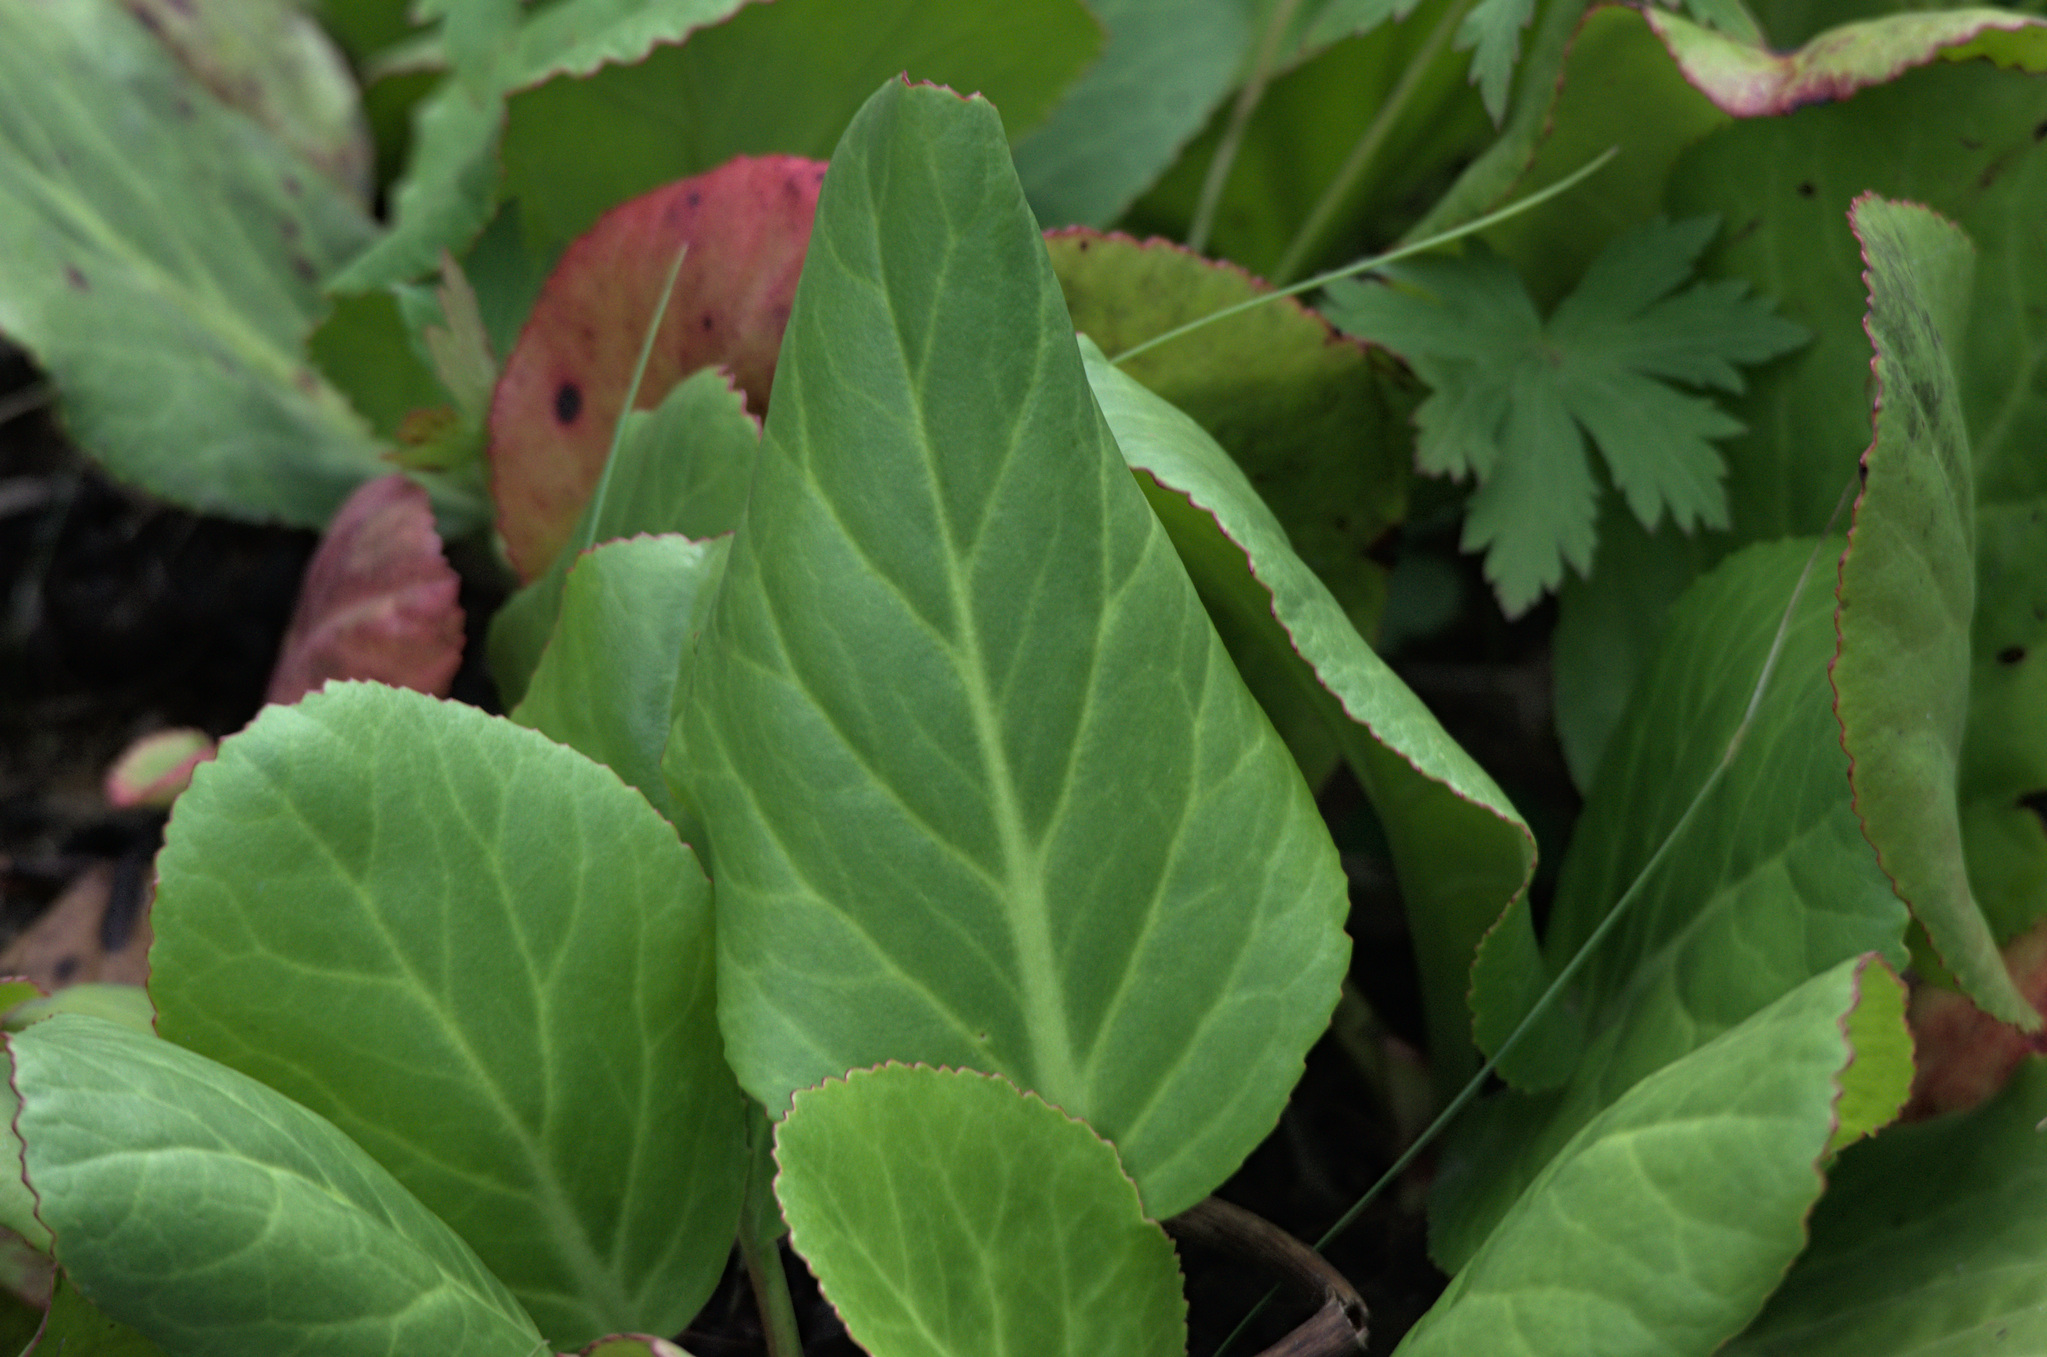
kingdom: Plantae
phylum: Tracheophyta
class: Magnoliopsida
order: Saxifragales
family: Saxifragaceae
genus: Bergenia
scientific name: Bergenia crassifolia
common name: Elephant-ears
